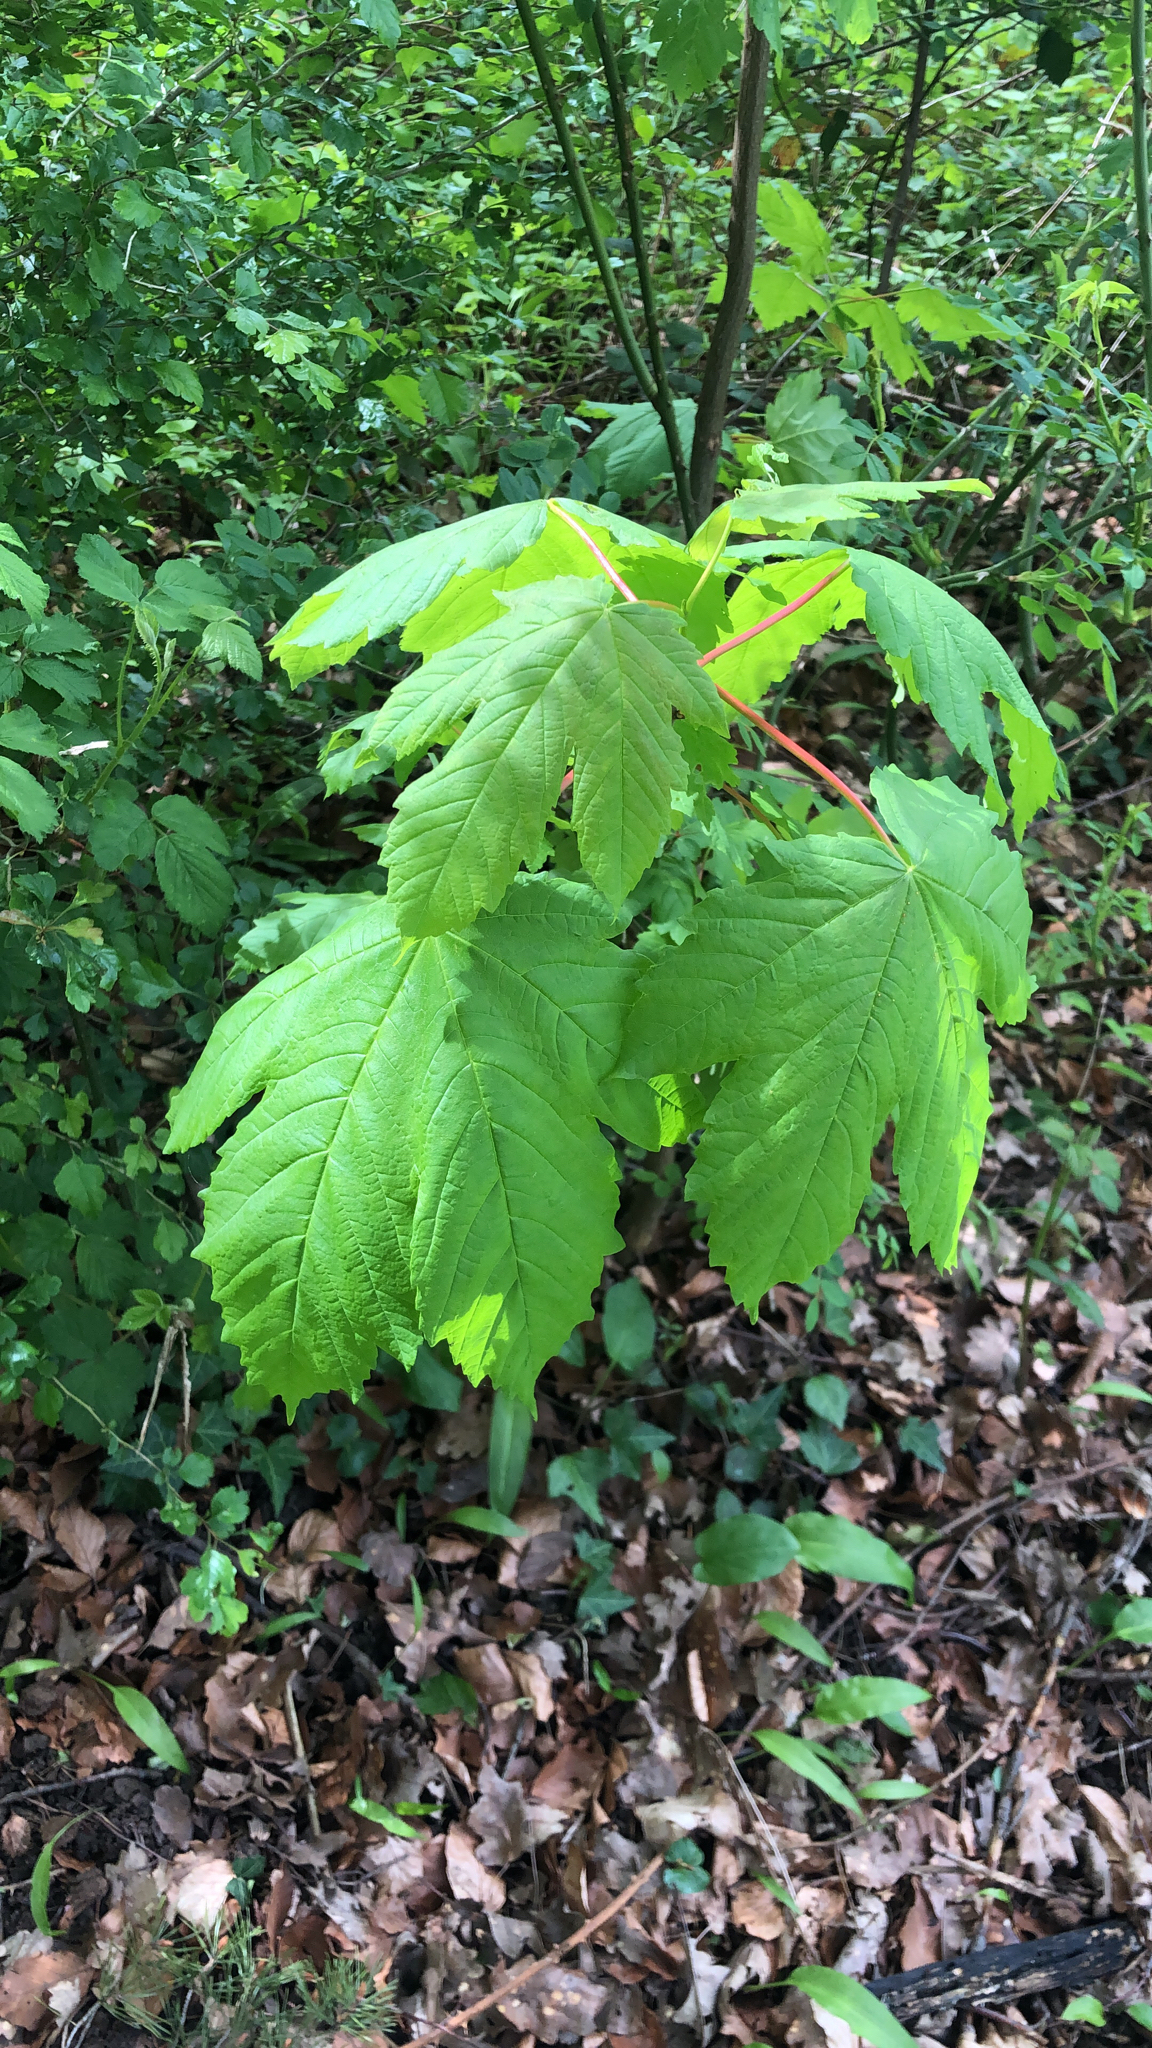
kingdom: Plantae
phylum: Tracheophyta
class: Magnoliopsida
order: Sapindales
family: Sapindaceae
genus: Acer
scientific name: Acer pseudoplatanus
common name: Sycamore
